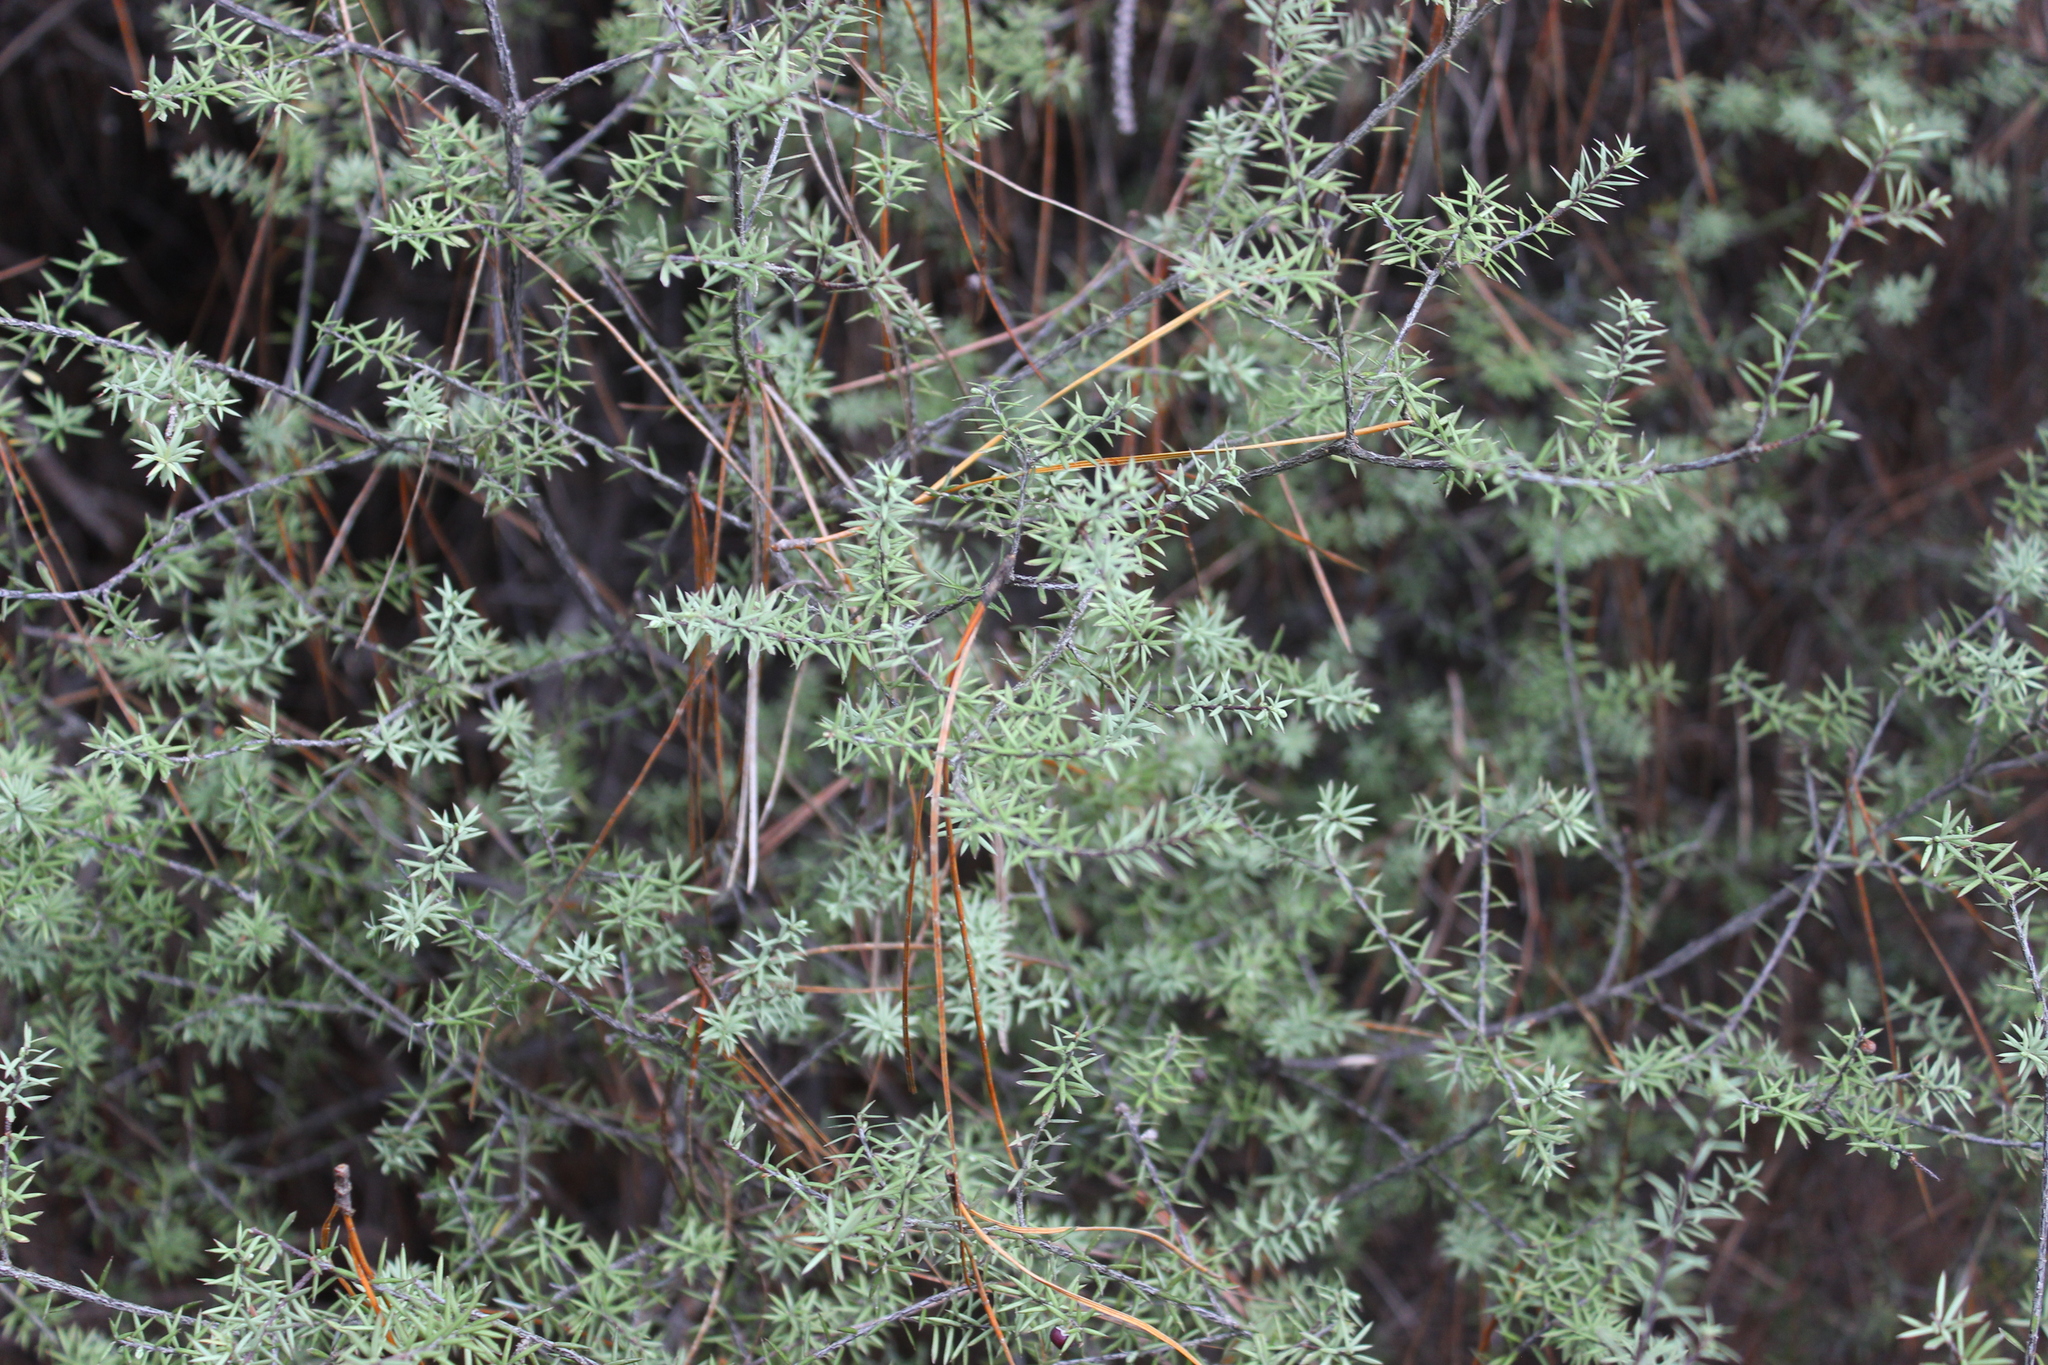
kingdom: Plantae
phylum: Tracheophyta
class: Magnoliopsida
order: Ericales
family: Ericaceae
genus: Leptecophylla
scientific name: Leptecophylla juniperina
